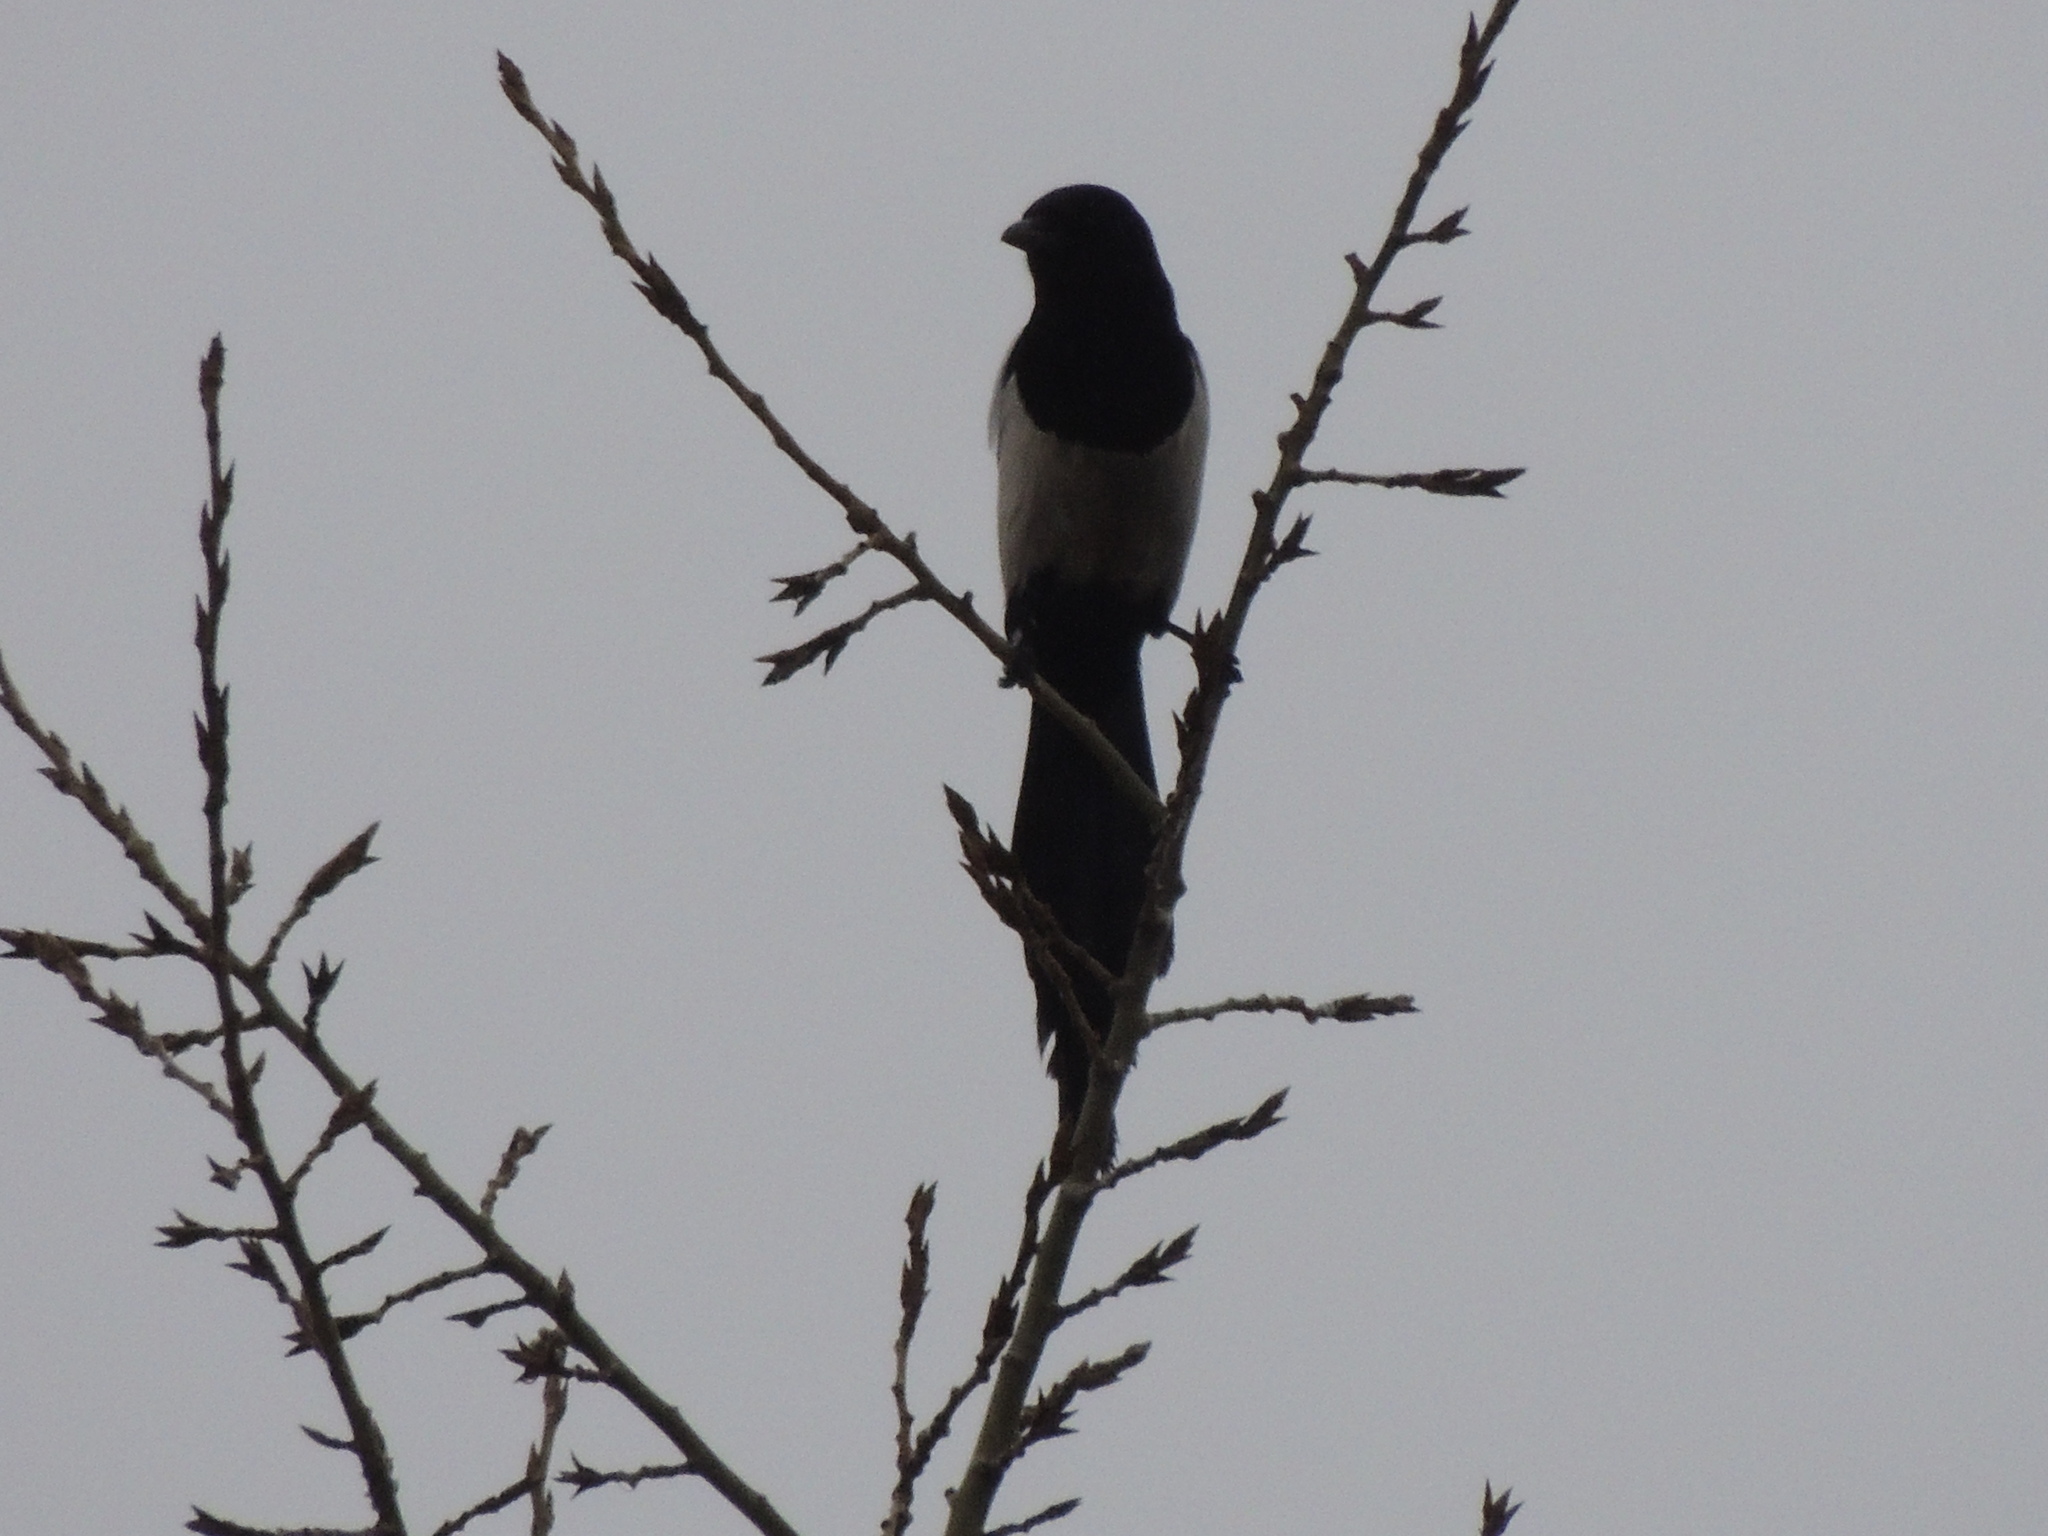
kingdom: Animalia
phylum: Chordata
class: Aves
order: Passeriformes
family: Corvidae
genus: Pica
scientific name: Pica pica
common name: Eurasian magpie
